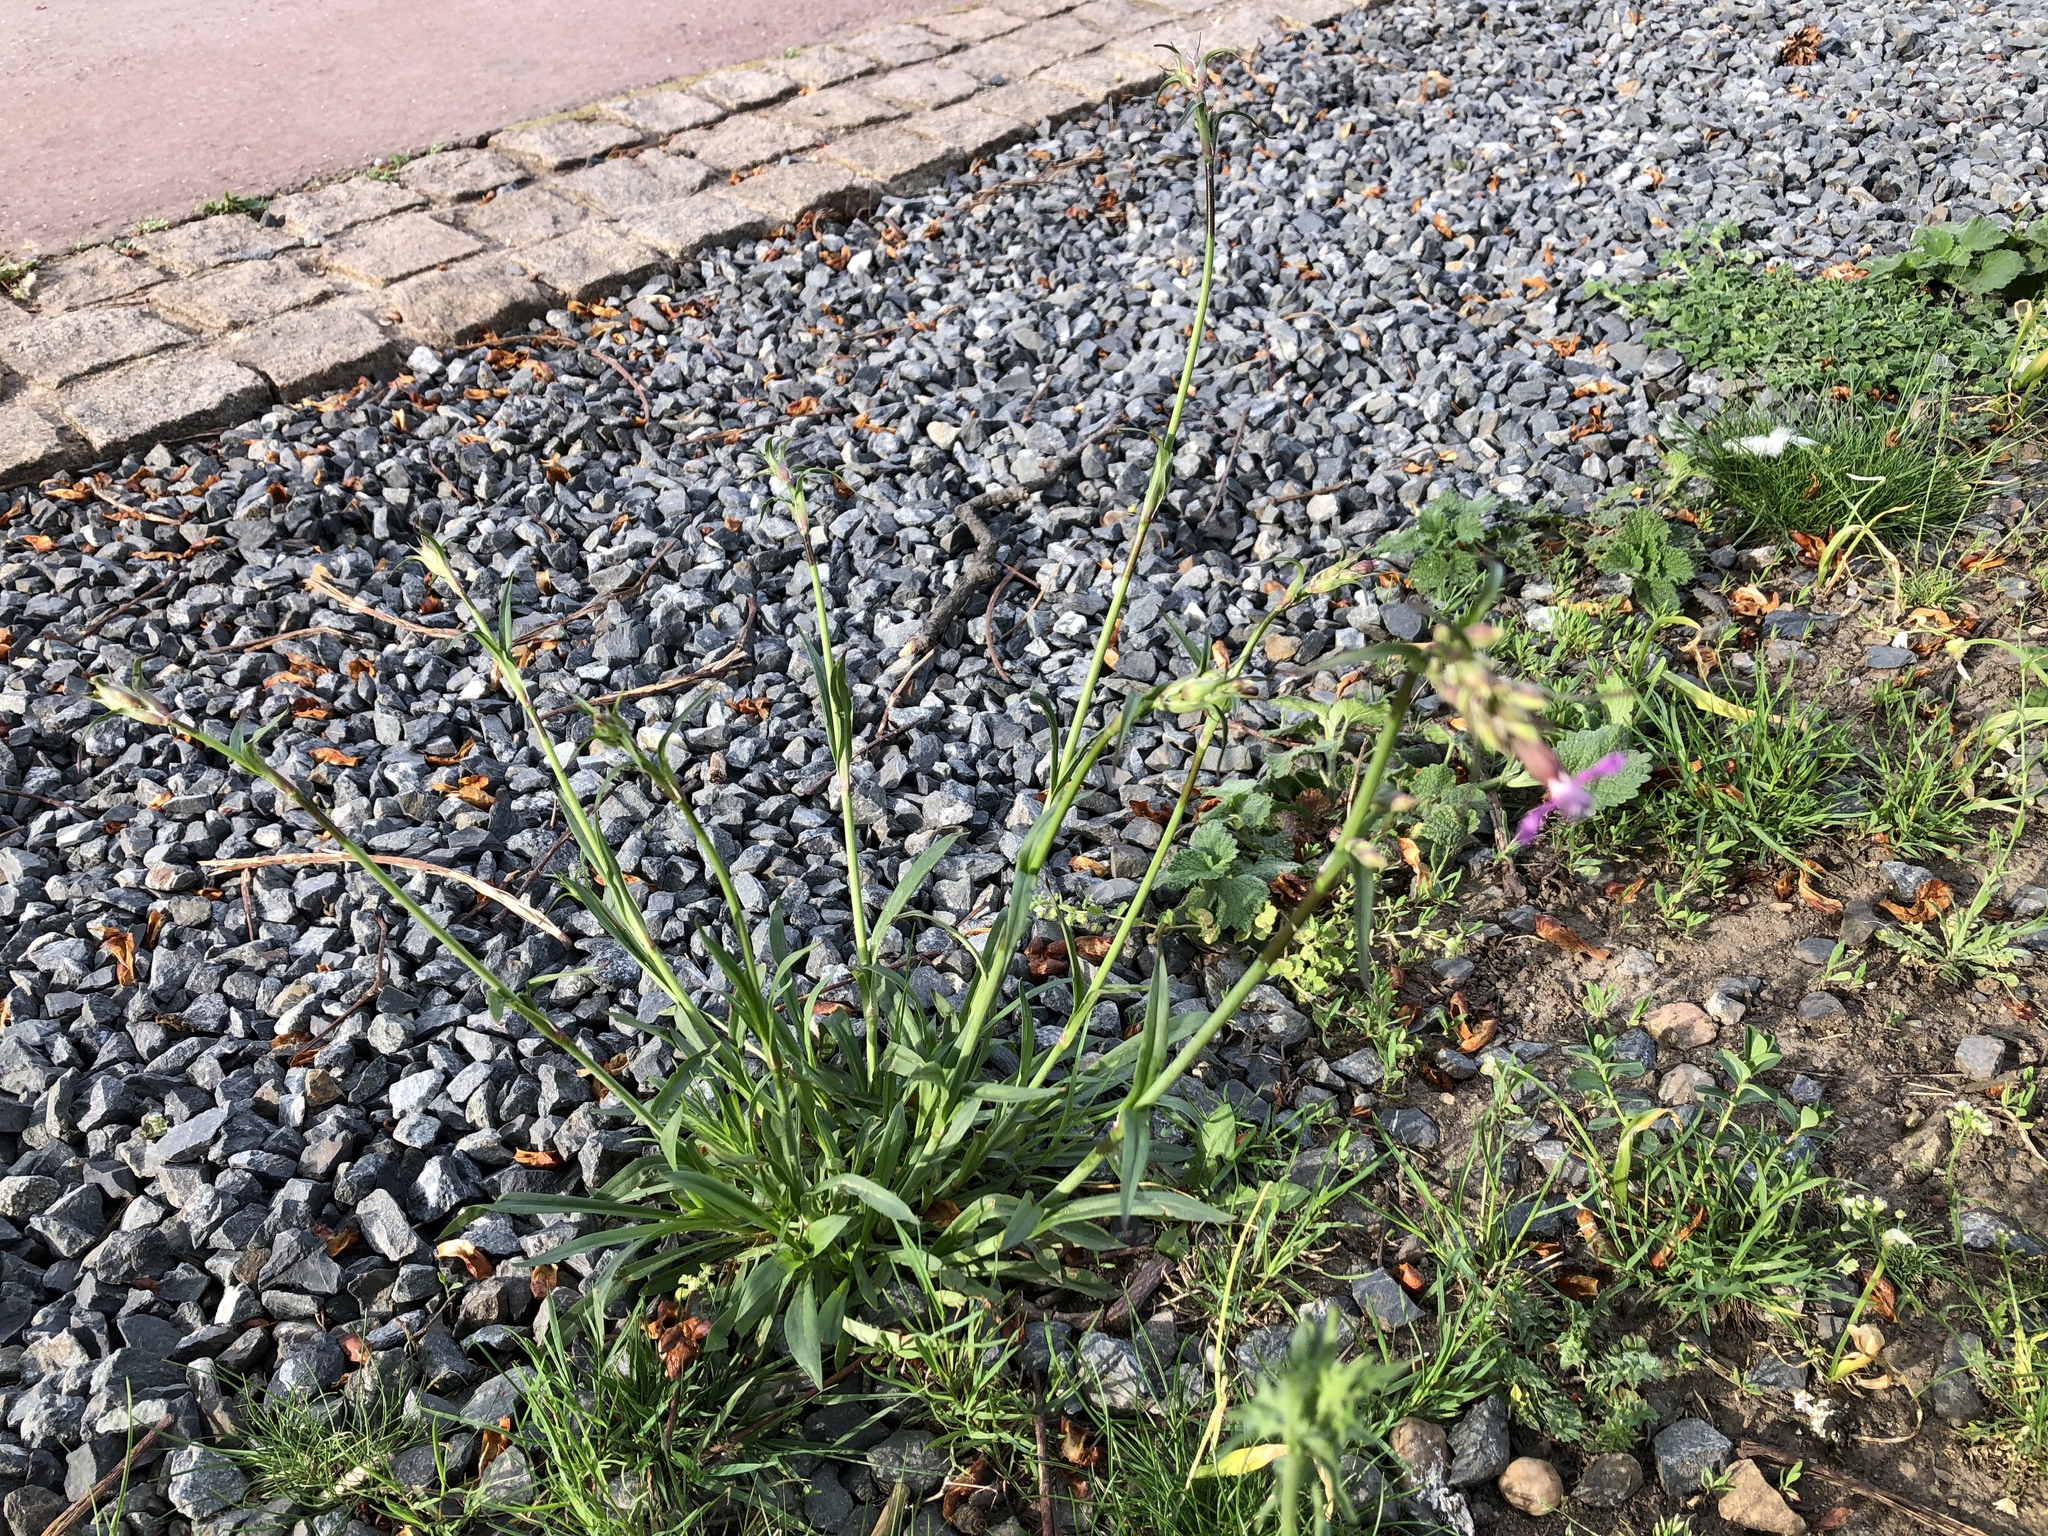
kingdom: Plantae
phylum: Tracheophyta
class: Magnoliopsida
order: Caryophyllales
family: Caryophyllaceae
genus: Viscaria
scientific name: Viscaria vulgaris
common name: Clammy campion
